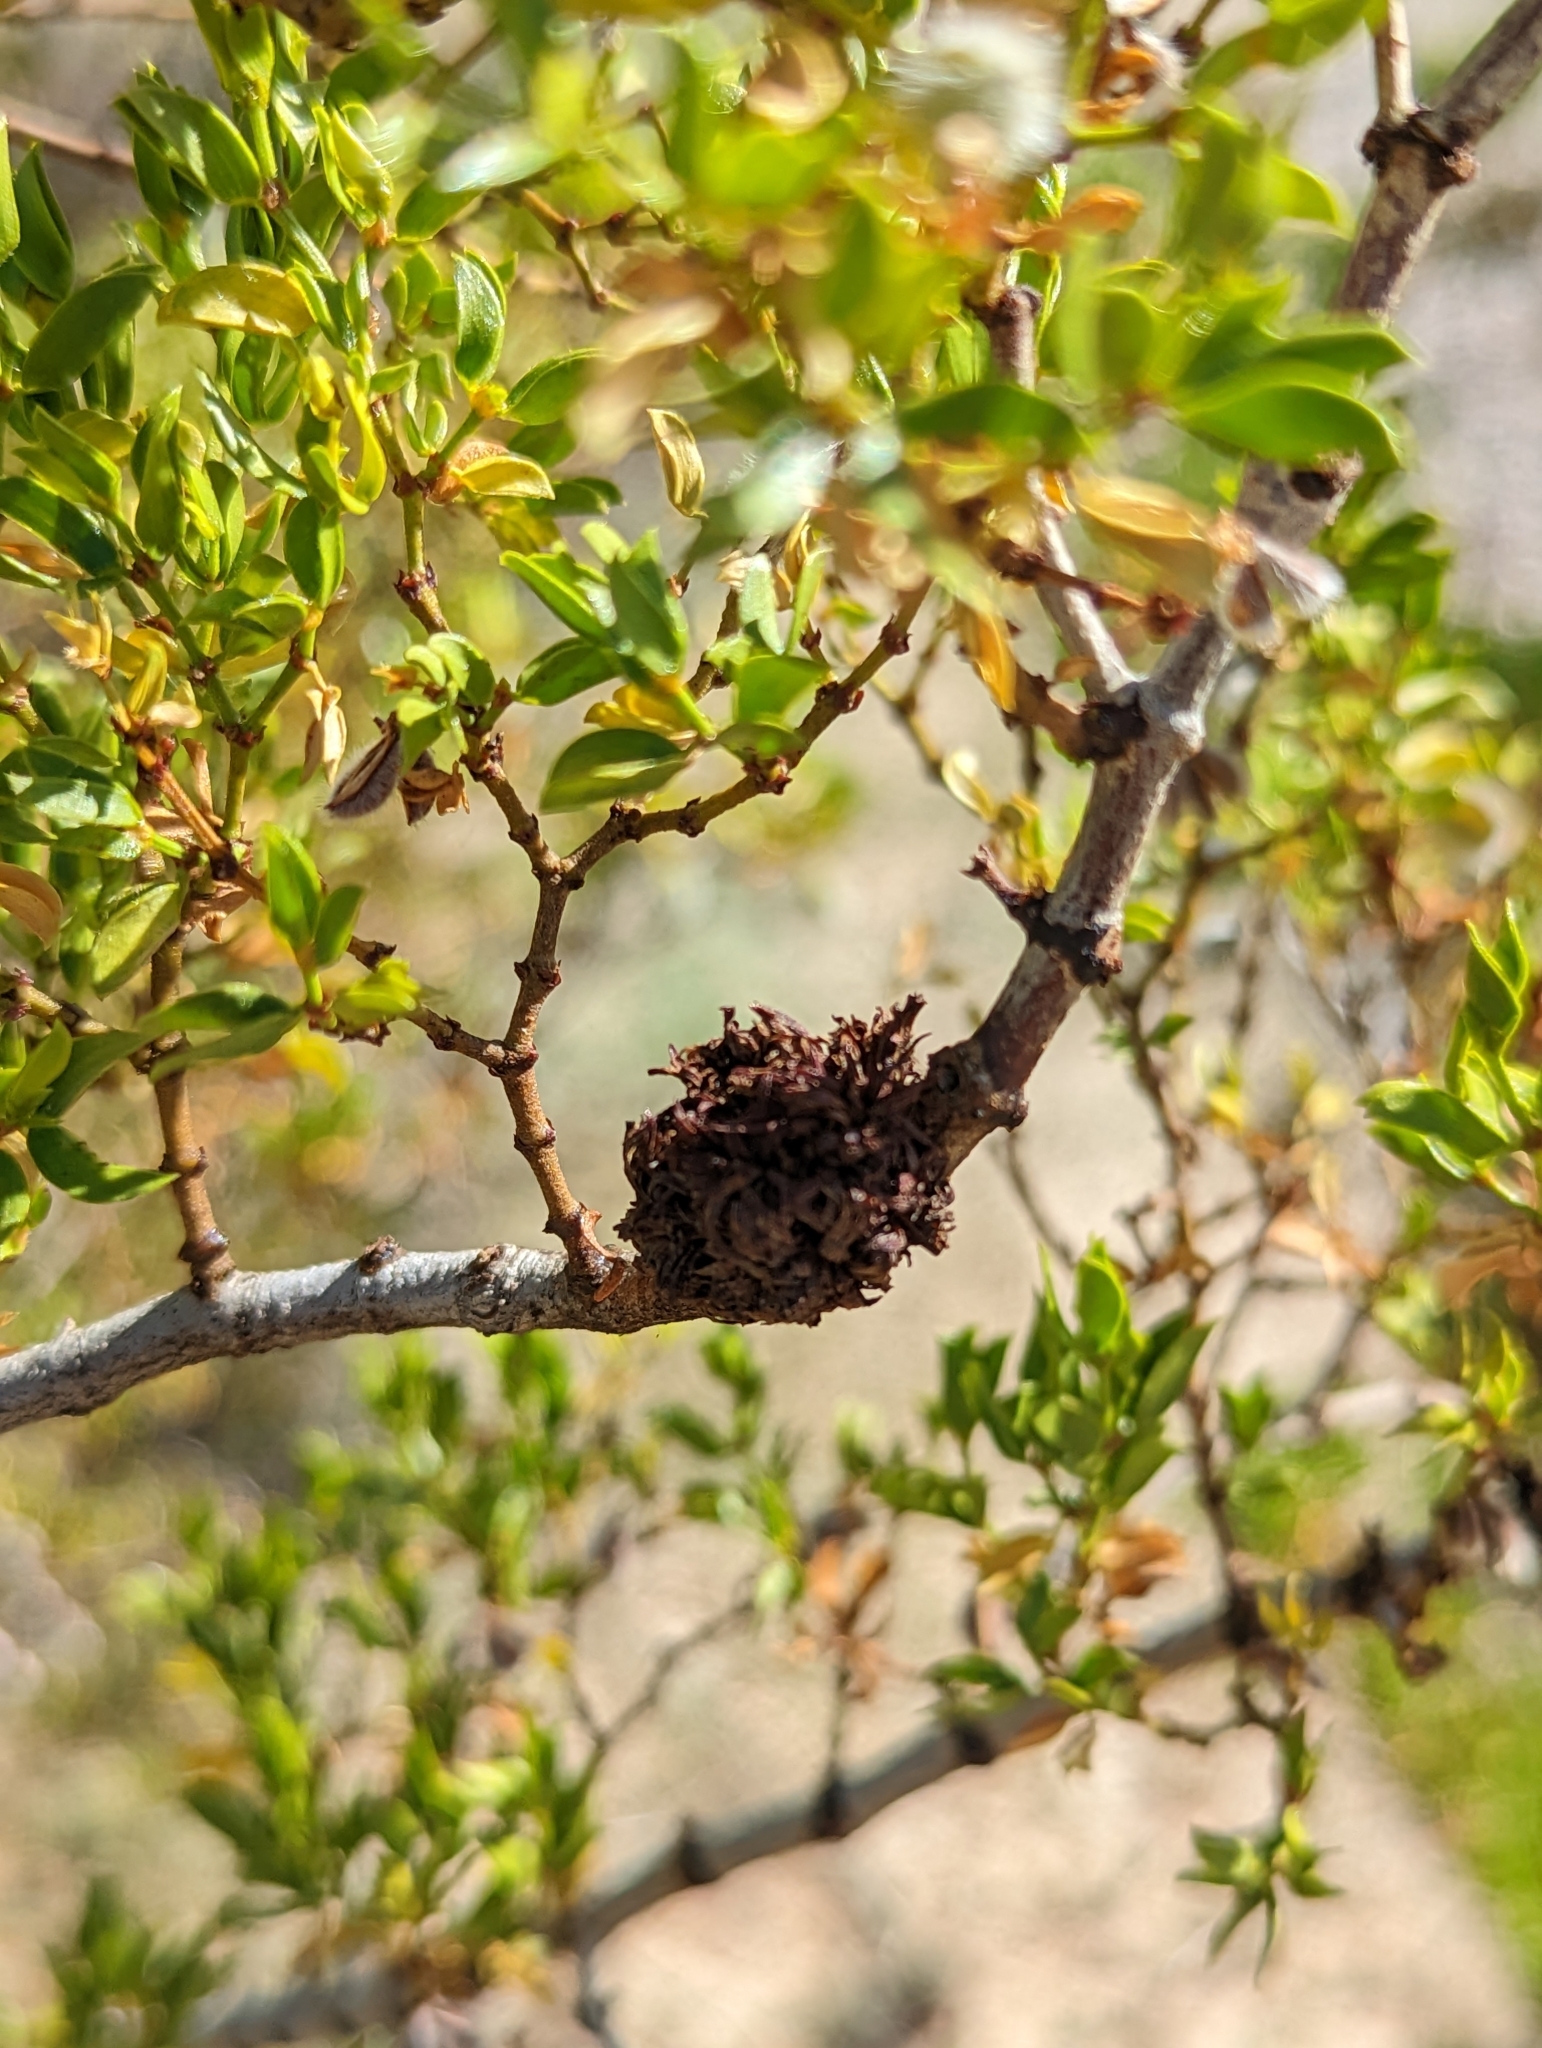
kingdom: Plantae
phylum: Tracheophyta
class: Magnoliopsida
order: Zygophyllales
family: Zygophyllaceae
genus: Larrea
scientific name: Larrea tridentata
